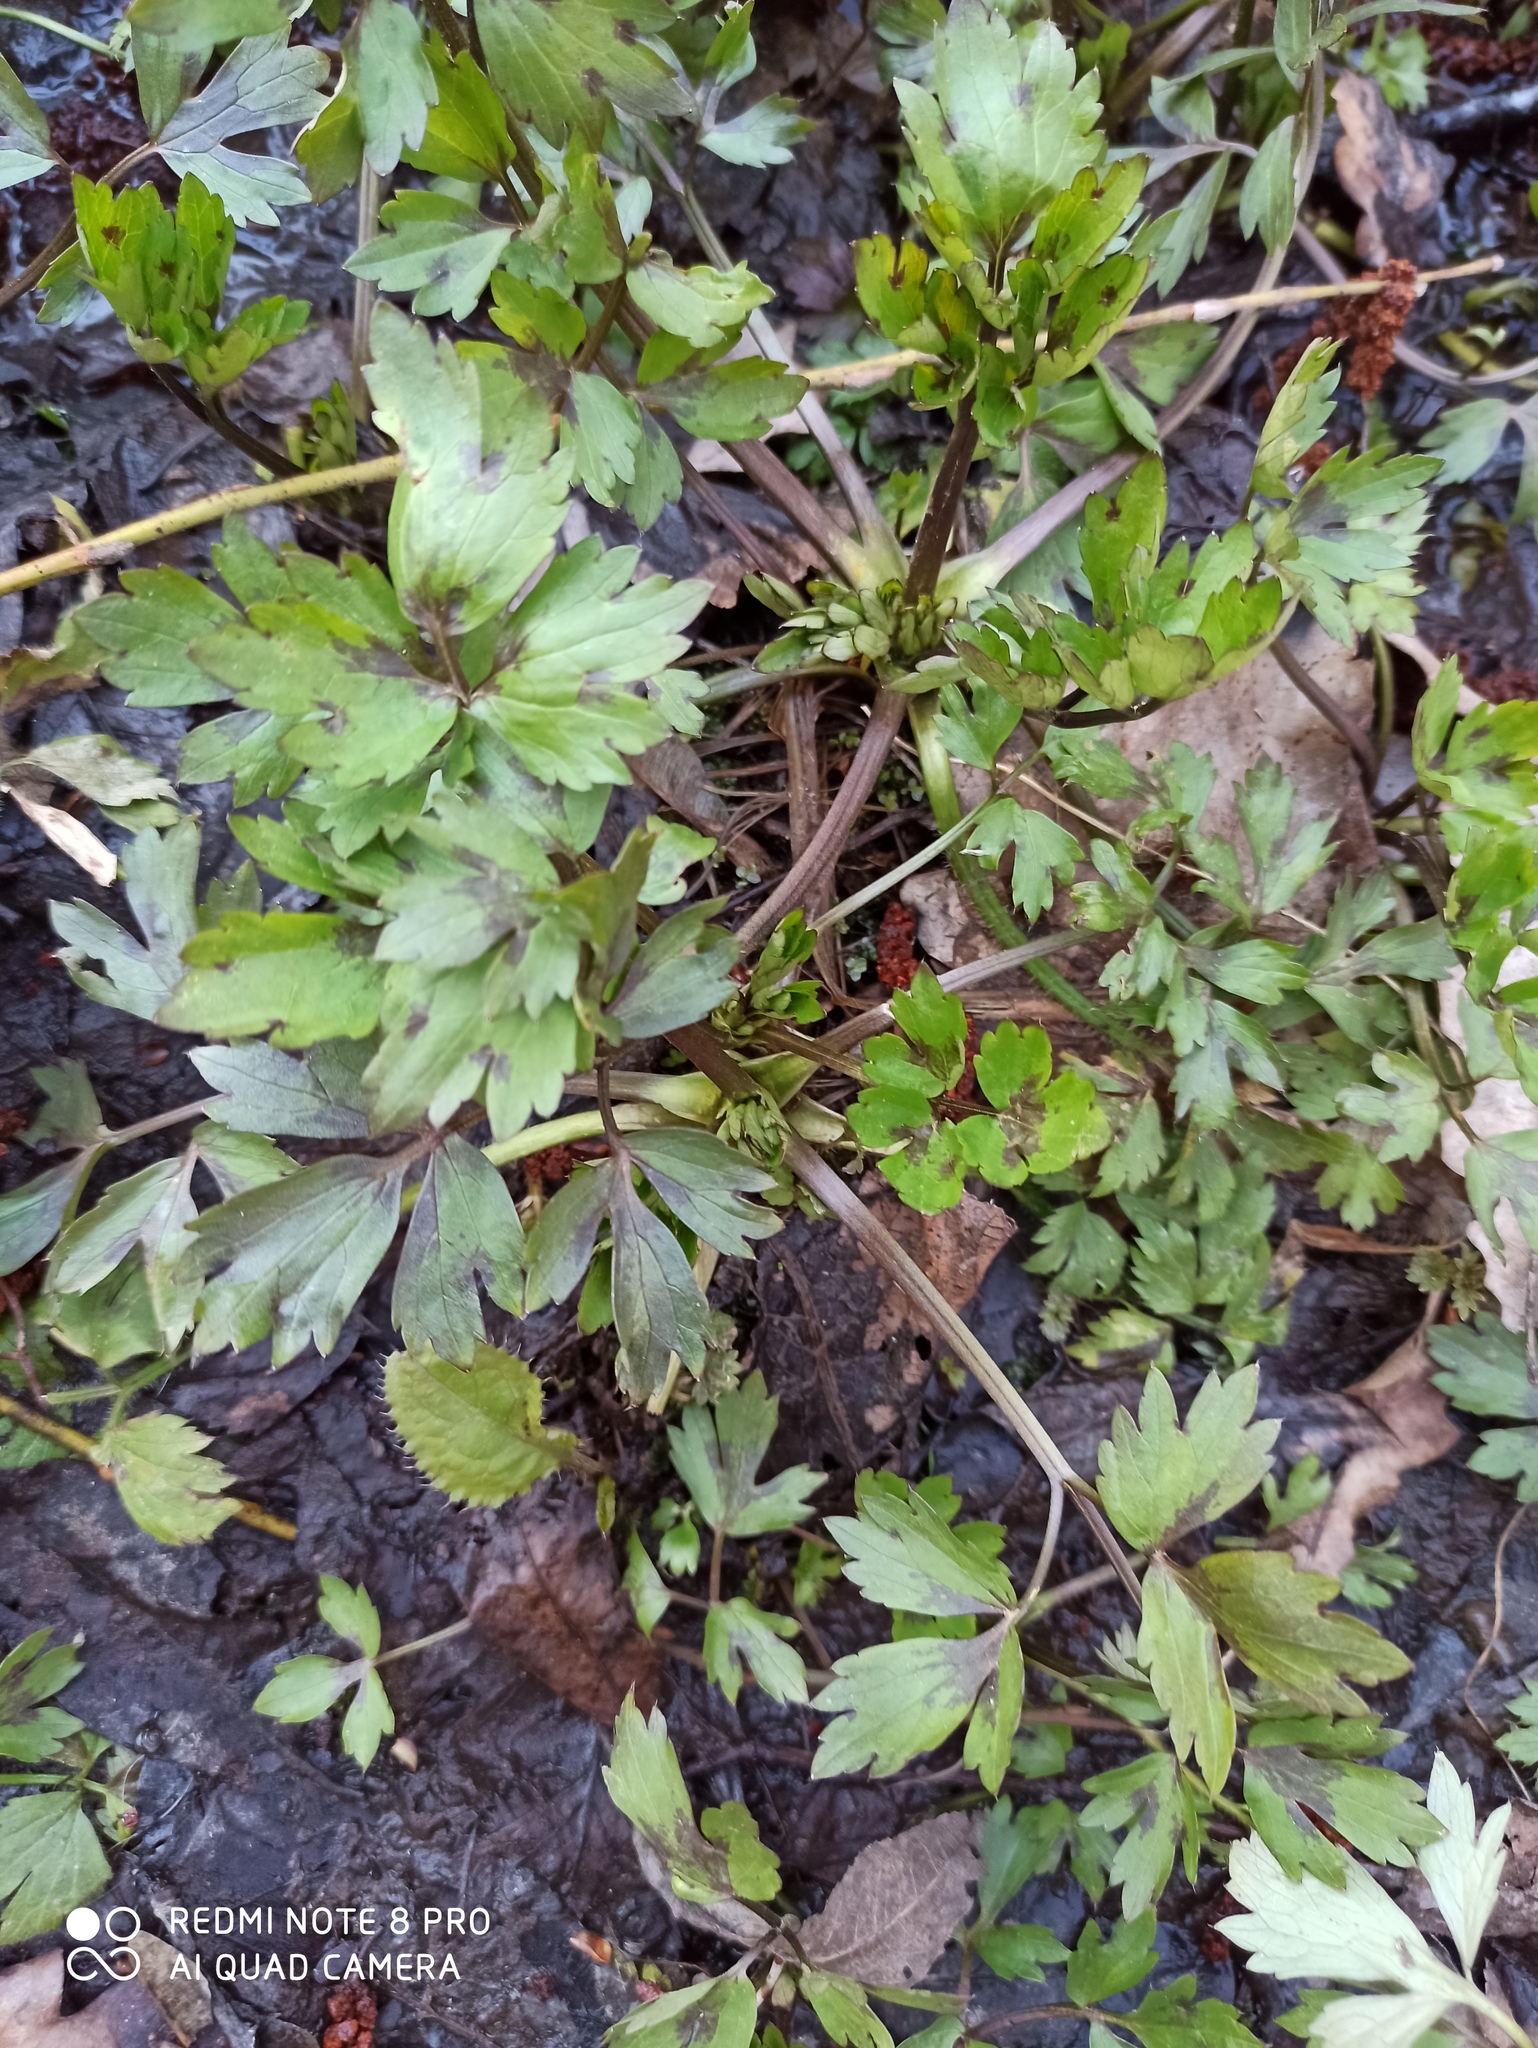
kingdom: Plantae
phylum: Tracheophyta
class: Magnoliopsida
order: Ranunculales
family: Ranunculaceae
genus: Ranunculus
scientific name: Ranunculus repens
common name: Creeping buttercup
